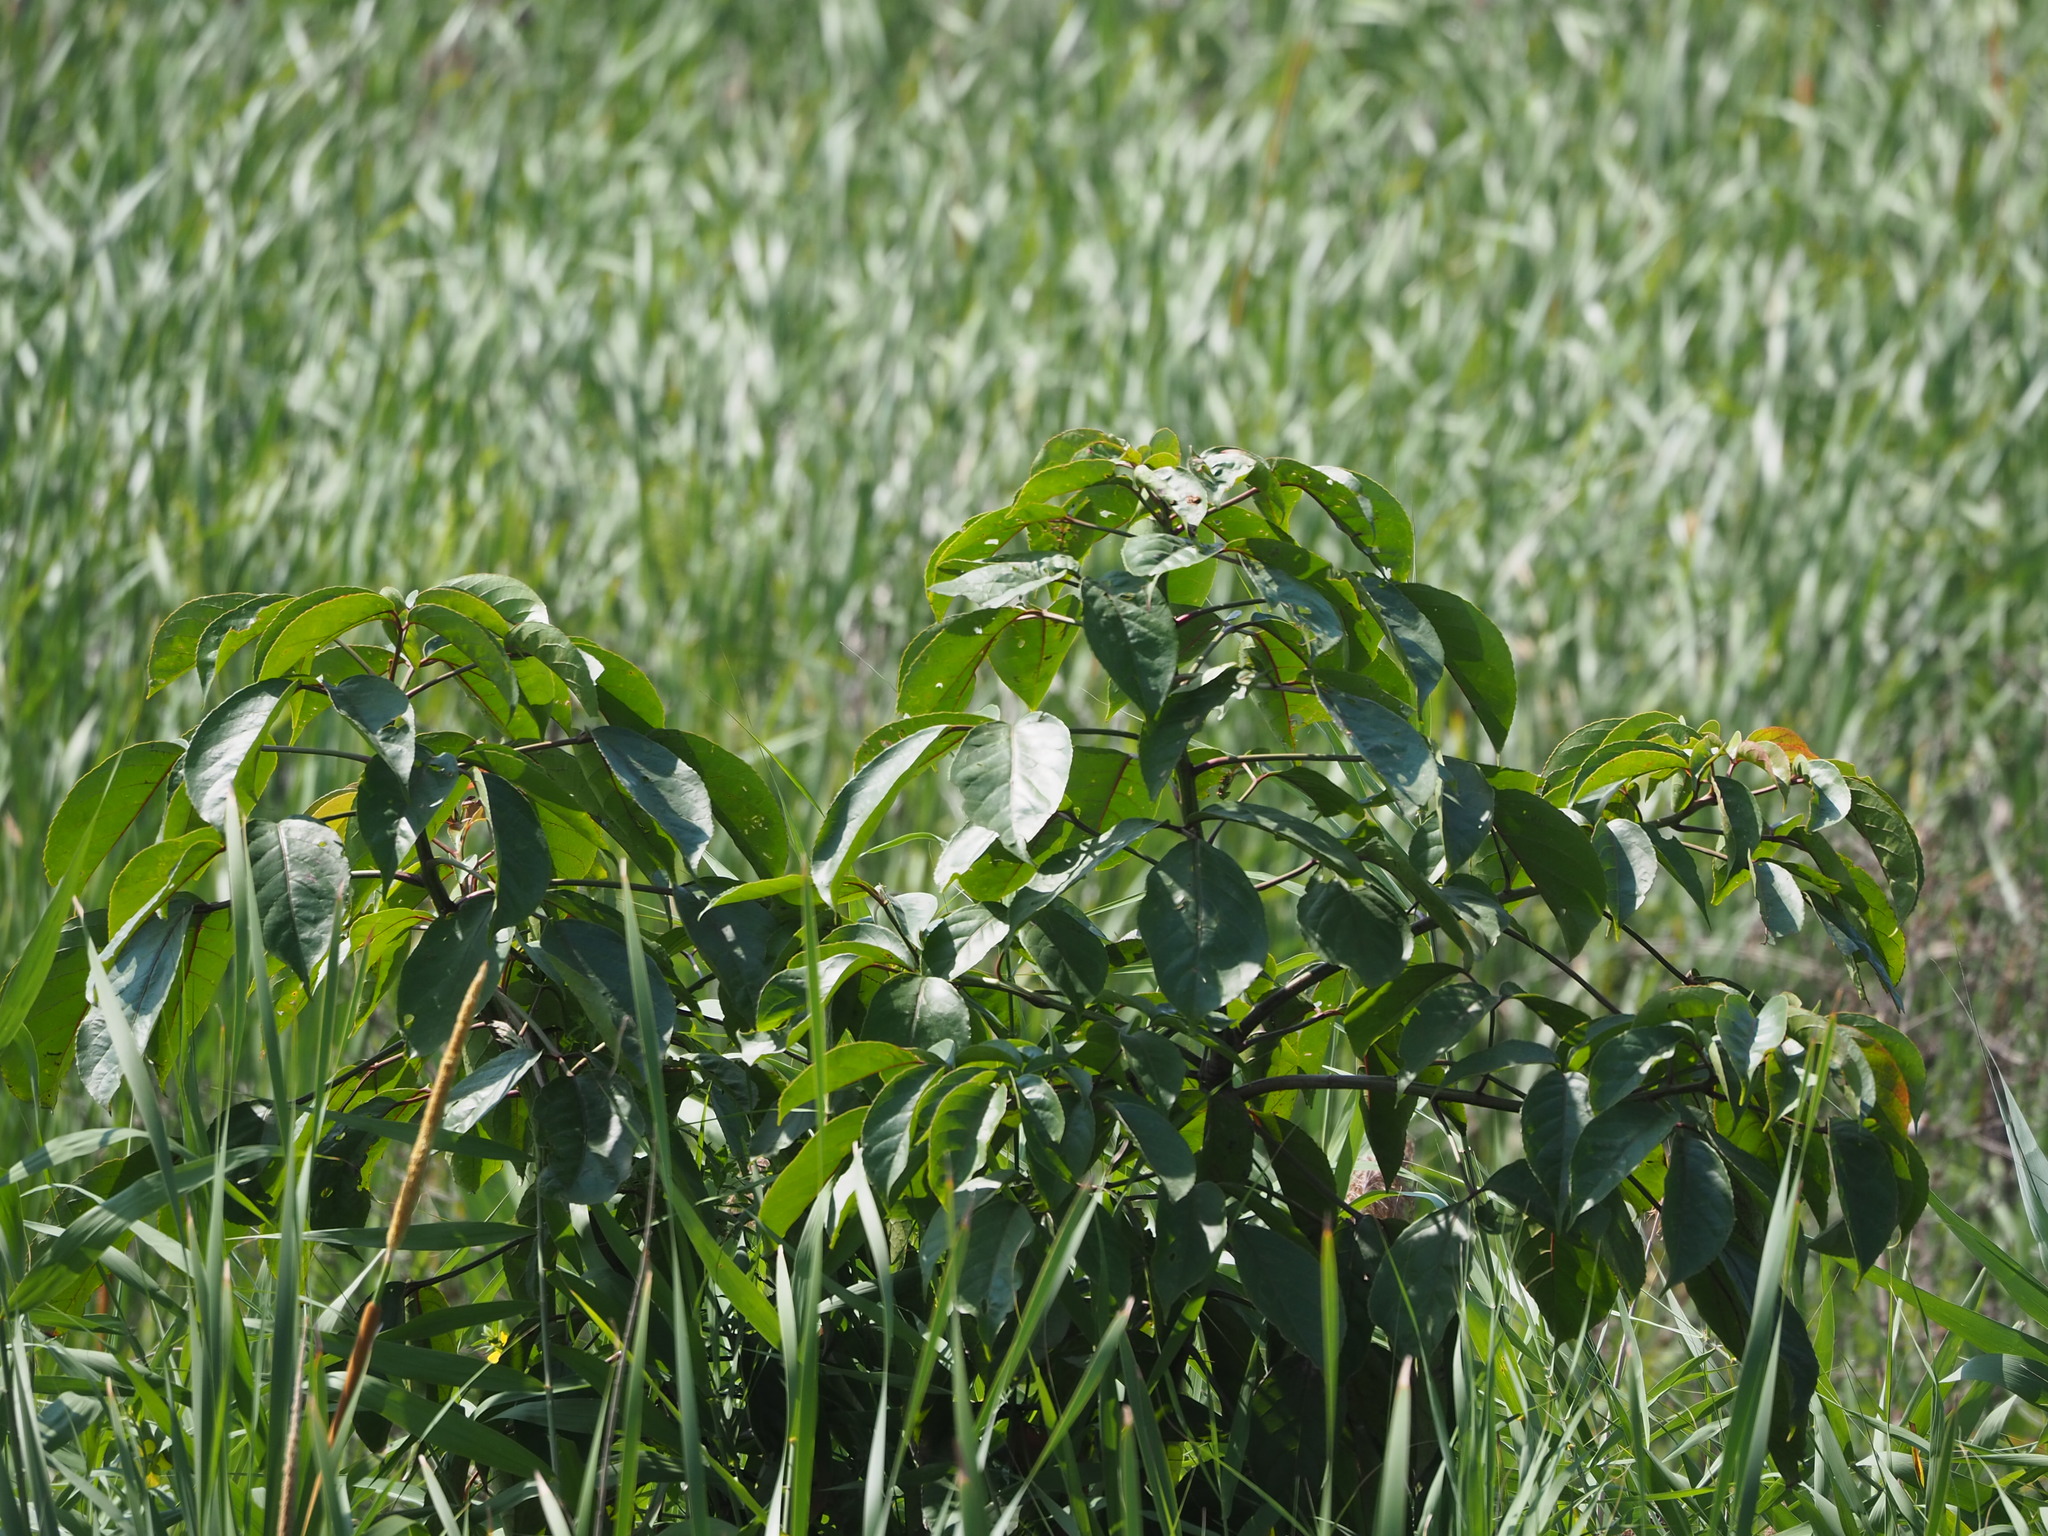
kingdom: Plantae
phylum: Tracheophyta
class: Magnoliopsida
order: Malpighiales
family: Phyllanthaceae
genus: Bischofia
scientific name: Bischofia javanica
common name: Javanese bishopwood
